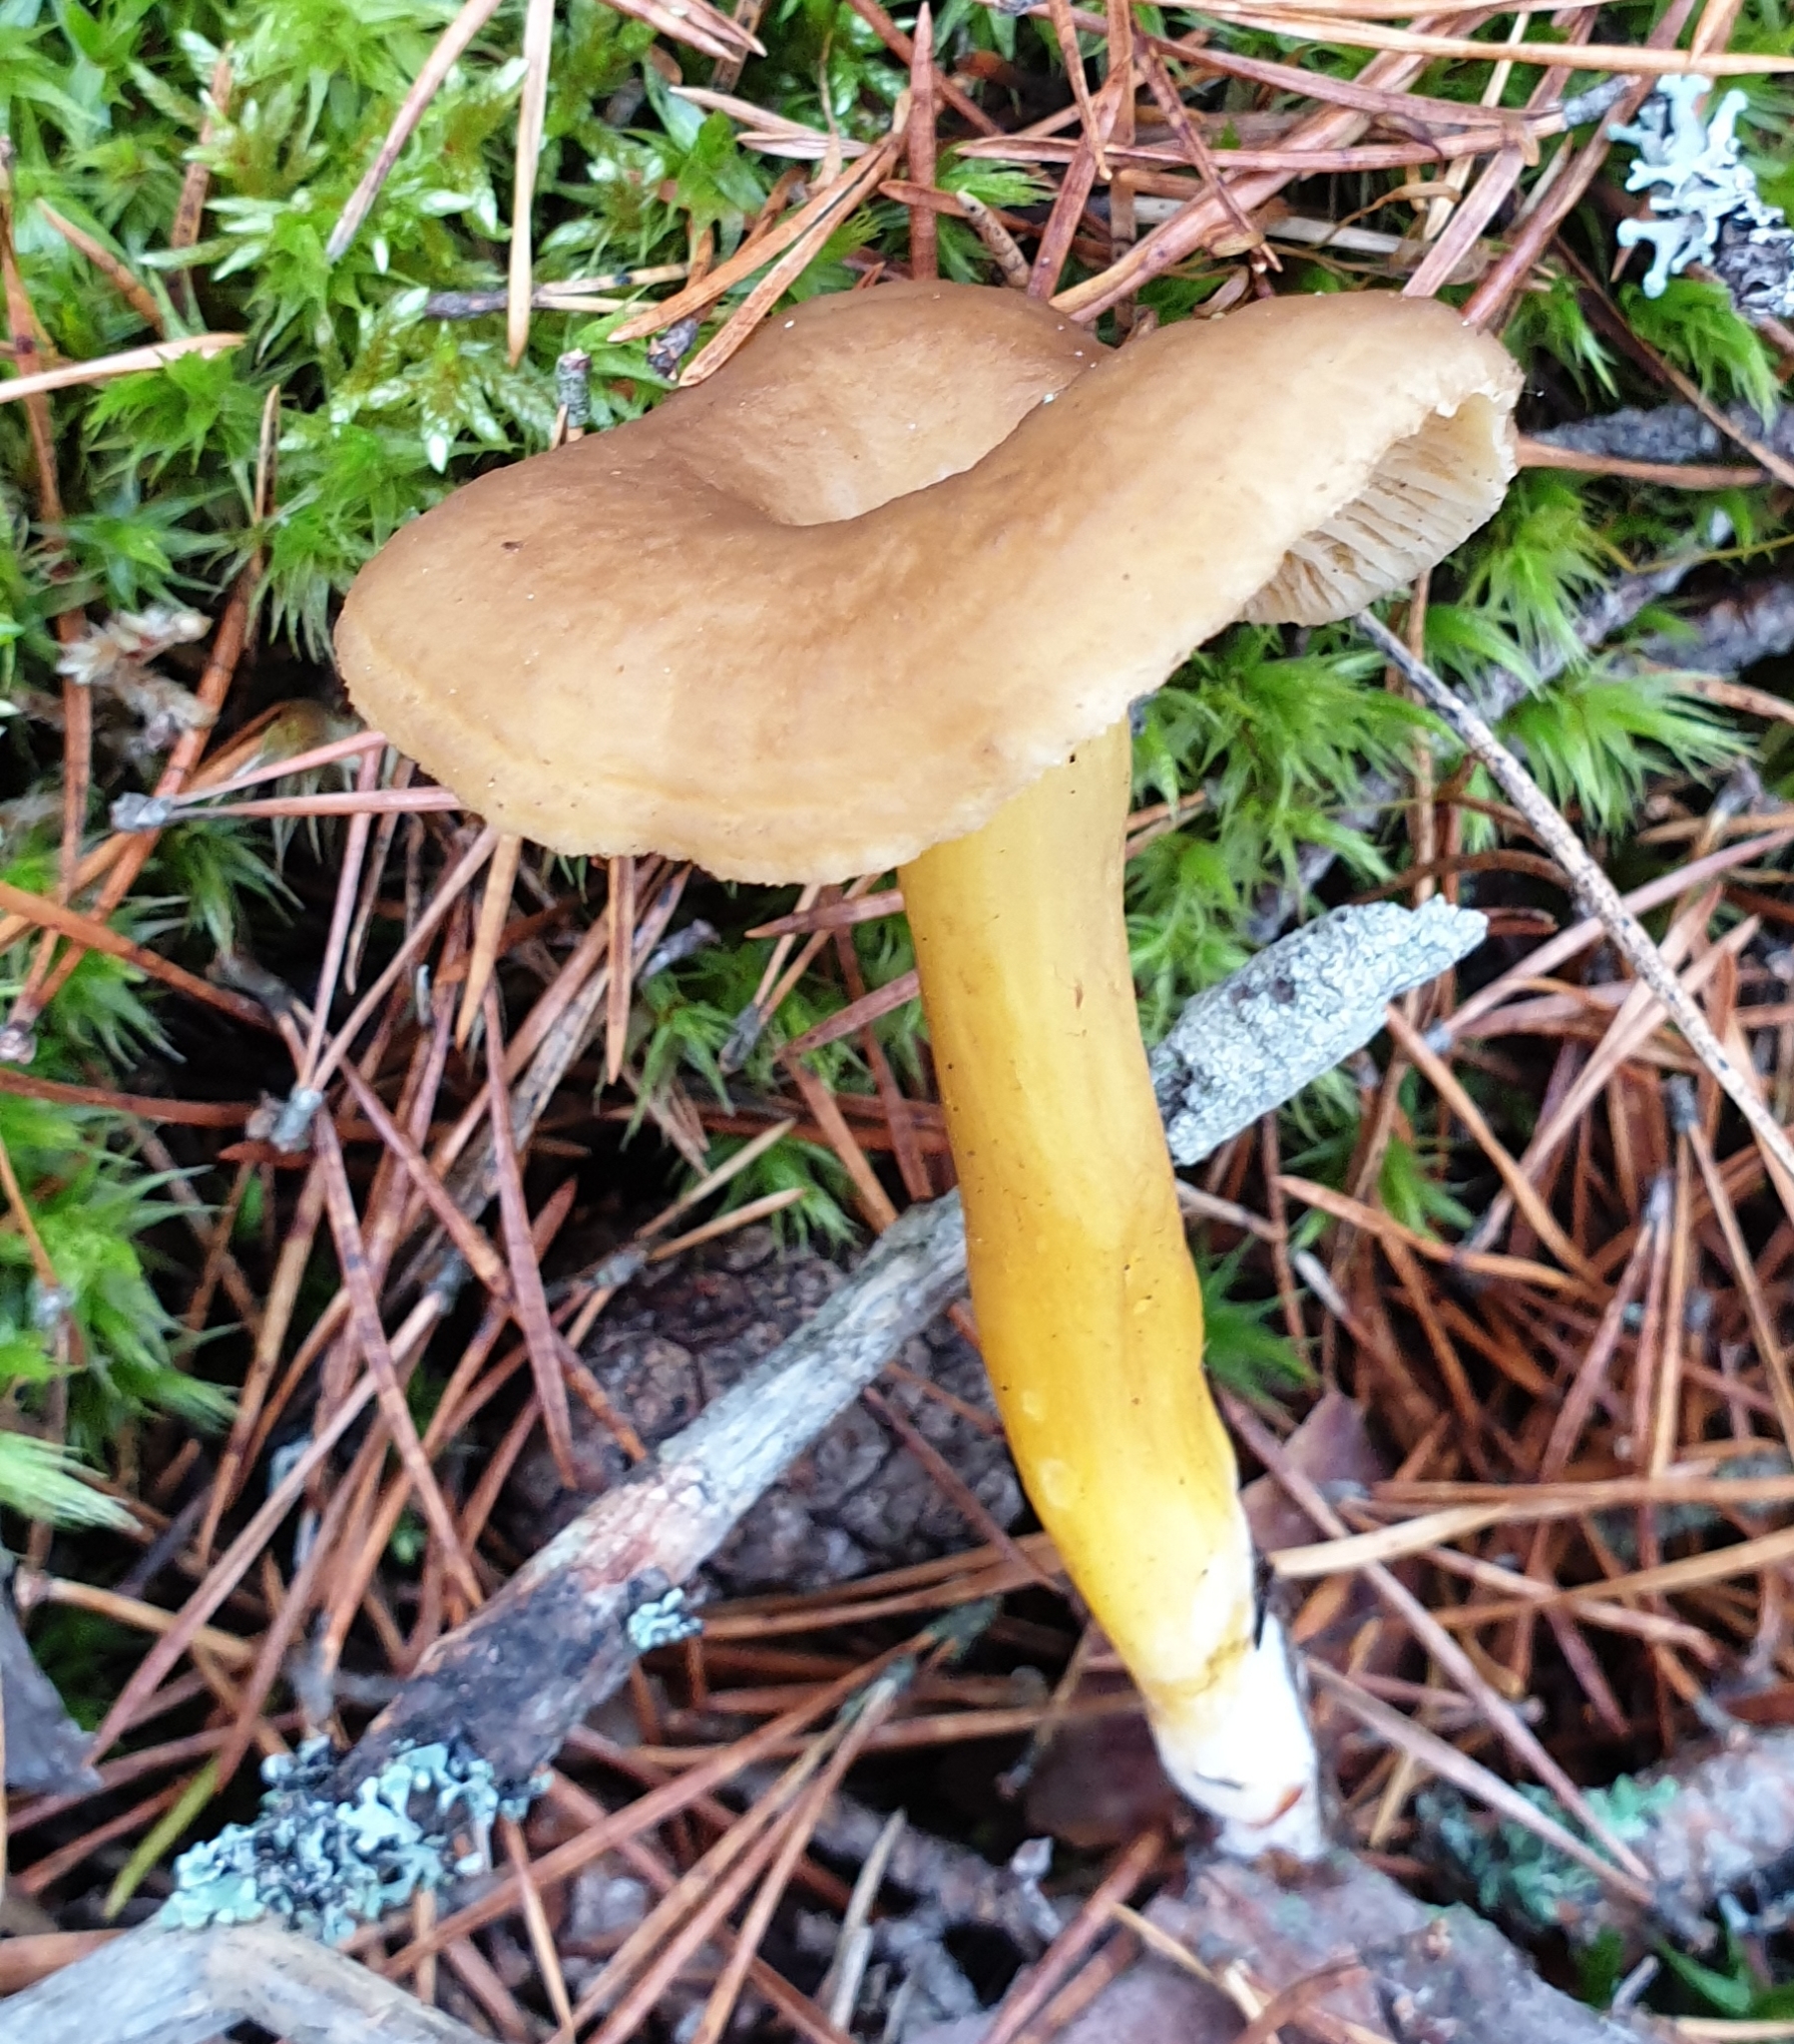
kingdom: Fungi
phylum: Basidiomycota
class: Agaricomycetes
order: Cantharellales
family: Hydnaceae
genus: Craterellus
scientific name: Craterellus tubaeformis
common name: Yellowfoot
